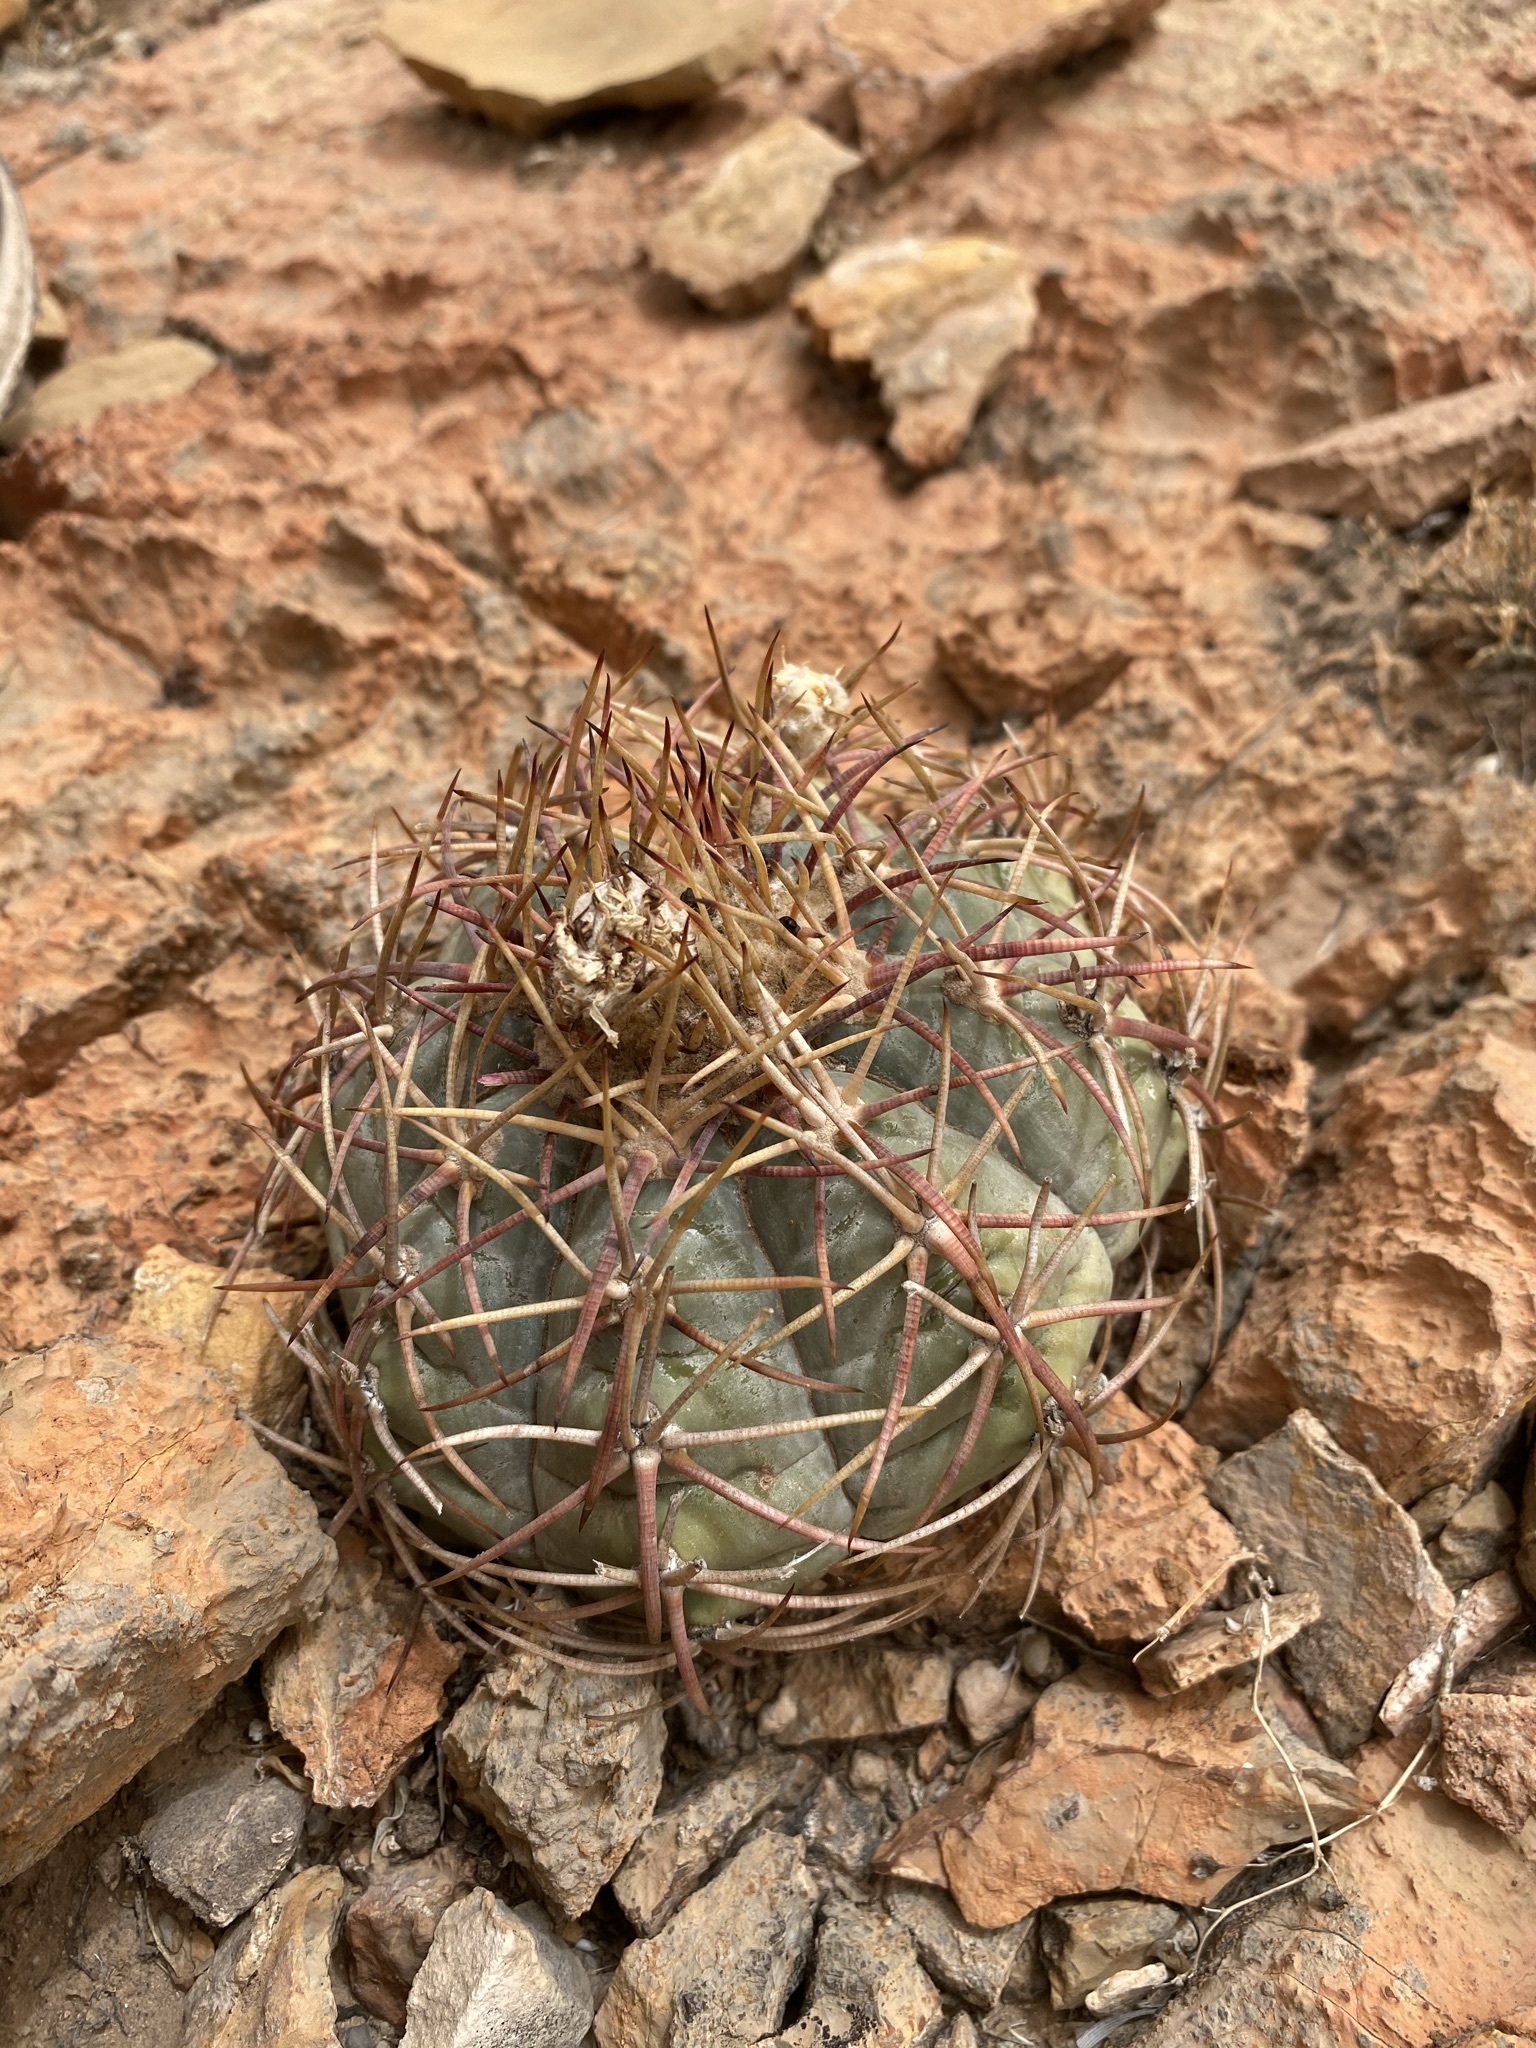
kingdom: Plantae
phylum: Tracheophyta
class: Magnoliopsida
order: Caryophyllales
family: Cactaceae
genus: Echinocactus
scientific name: Echinocactus horizonthalonius
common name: Devilshead
